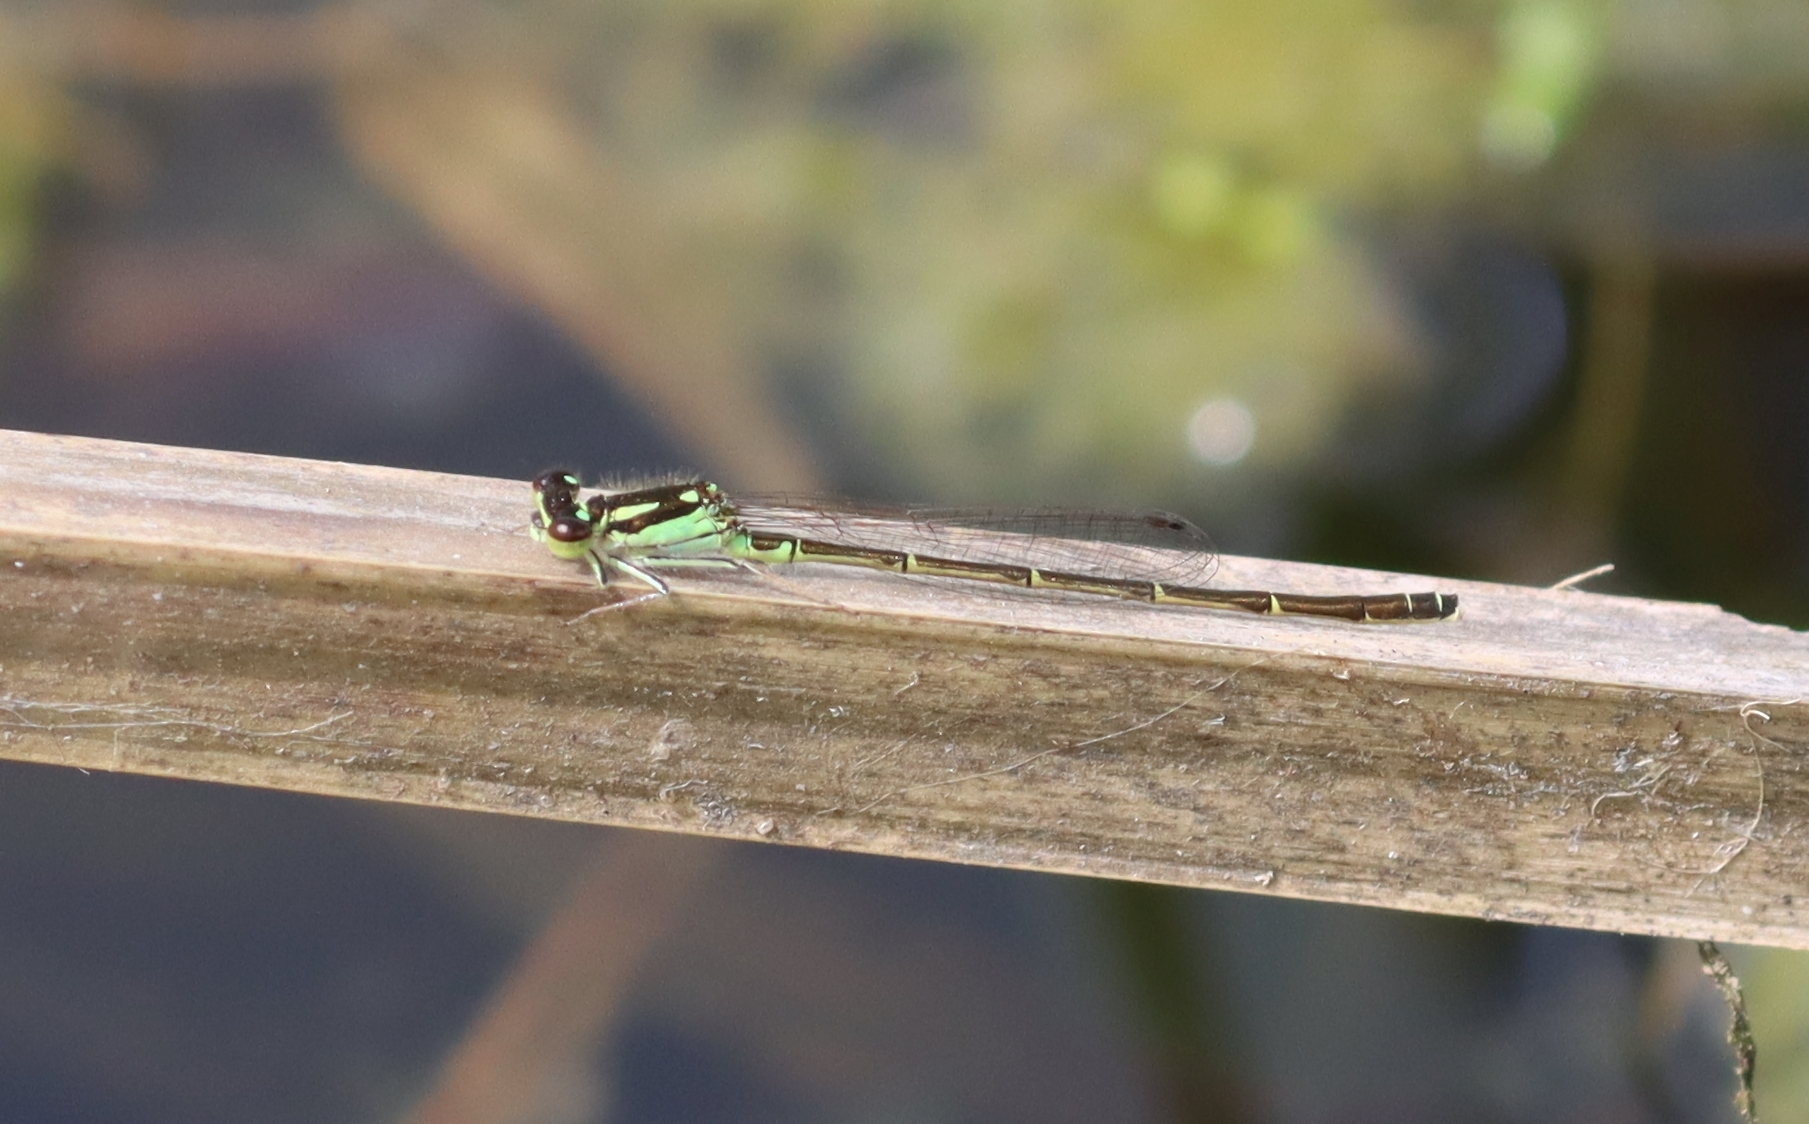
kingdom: Animalia
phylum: Arthropoda
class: Insecta
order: Odonata
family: Coenagrionidae
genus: Ischnura
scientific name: Ischnura posita
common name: Fragile forktail
